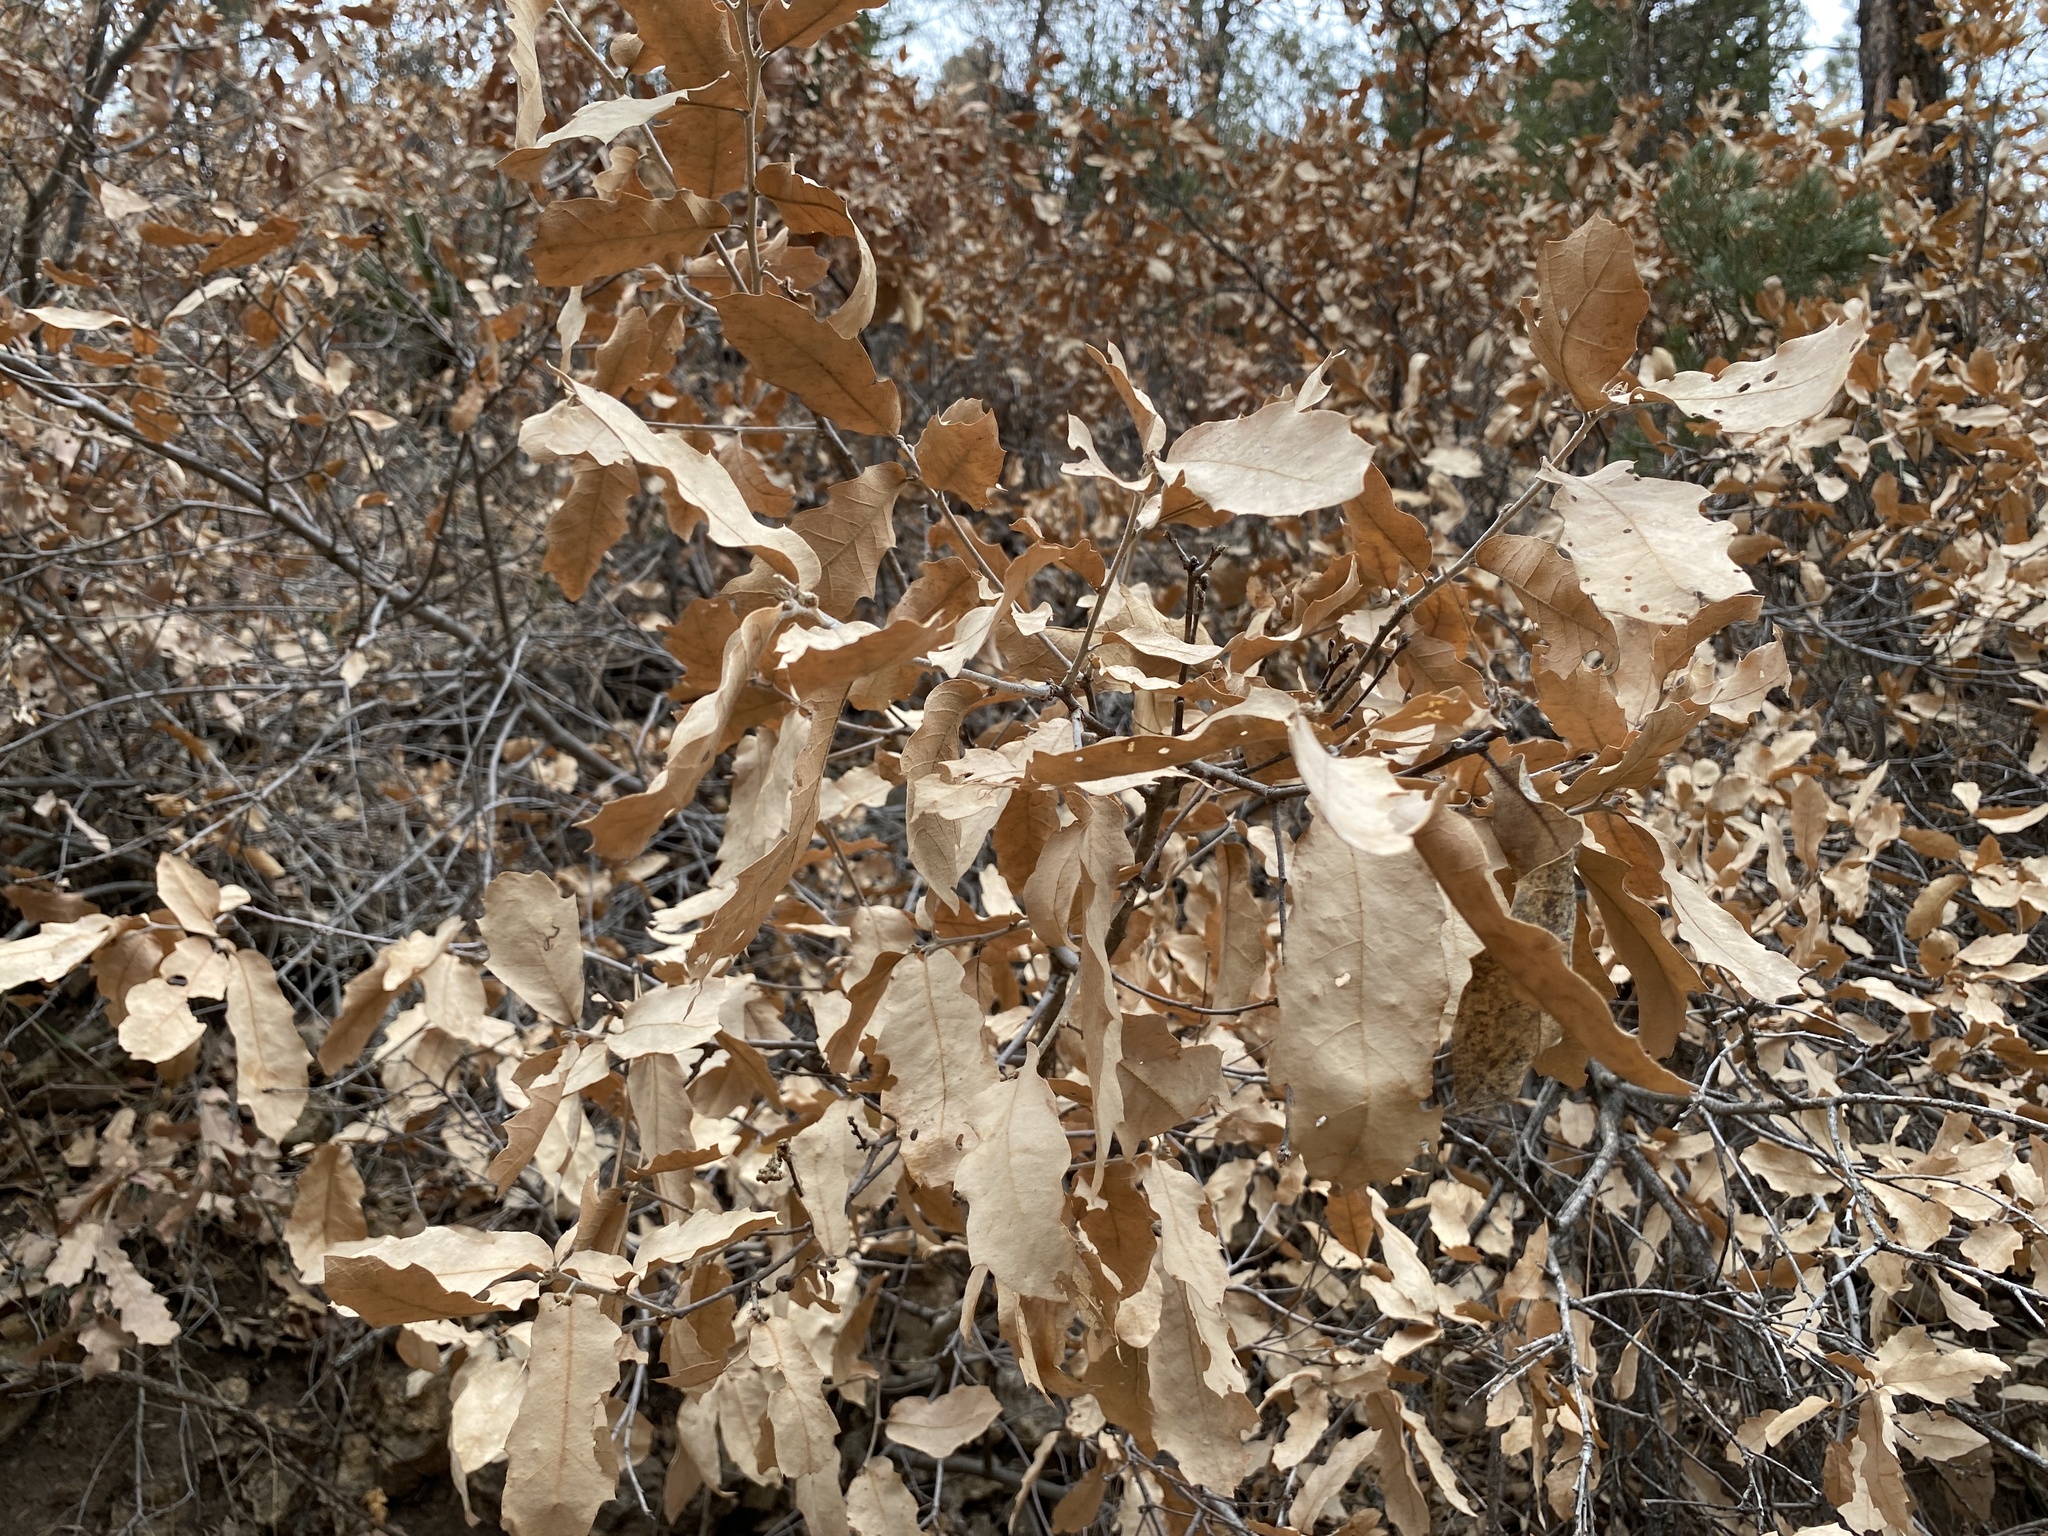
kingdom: Plantae
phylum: Tracheophyta
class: Magnoliopsida
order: Fagales
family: Fagaceae
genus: Quercus
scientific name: Quercus undulata
